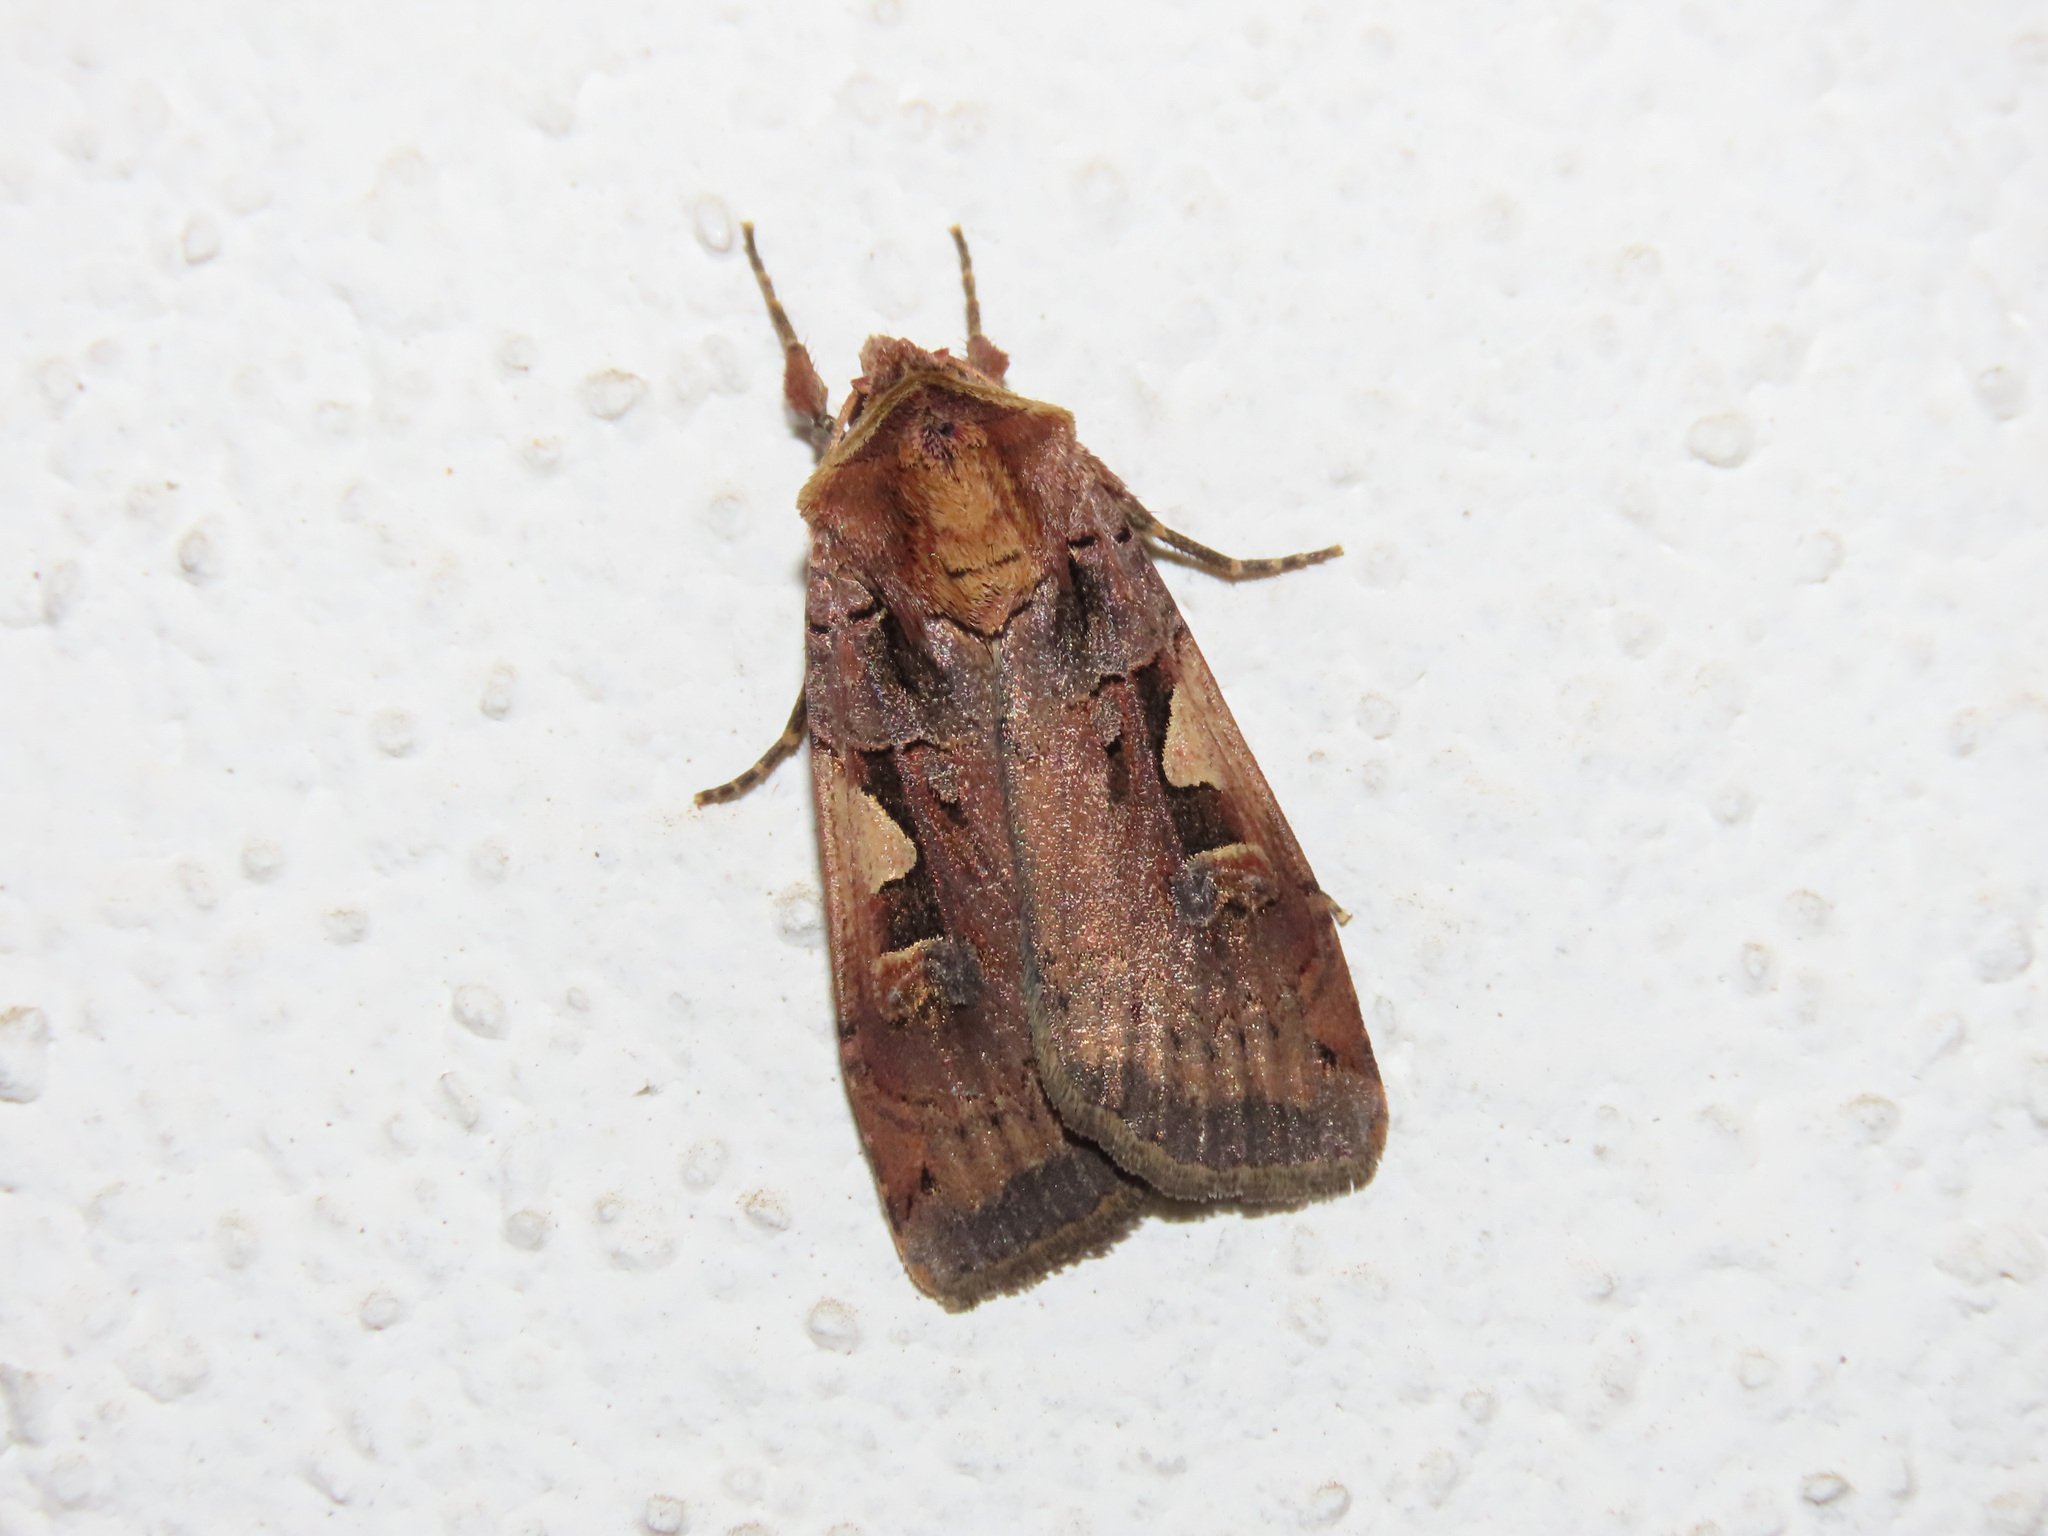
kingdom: Animalia
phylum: Arthropoda
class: Insecta
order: Lepidoptera
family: Noctuidae
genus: Xestia
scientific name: Xestia c-nigrum
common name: Setaceous hebrew character
